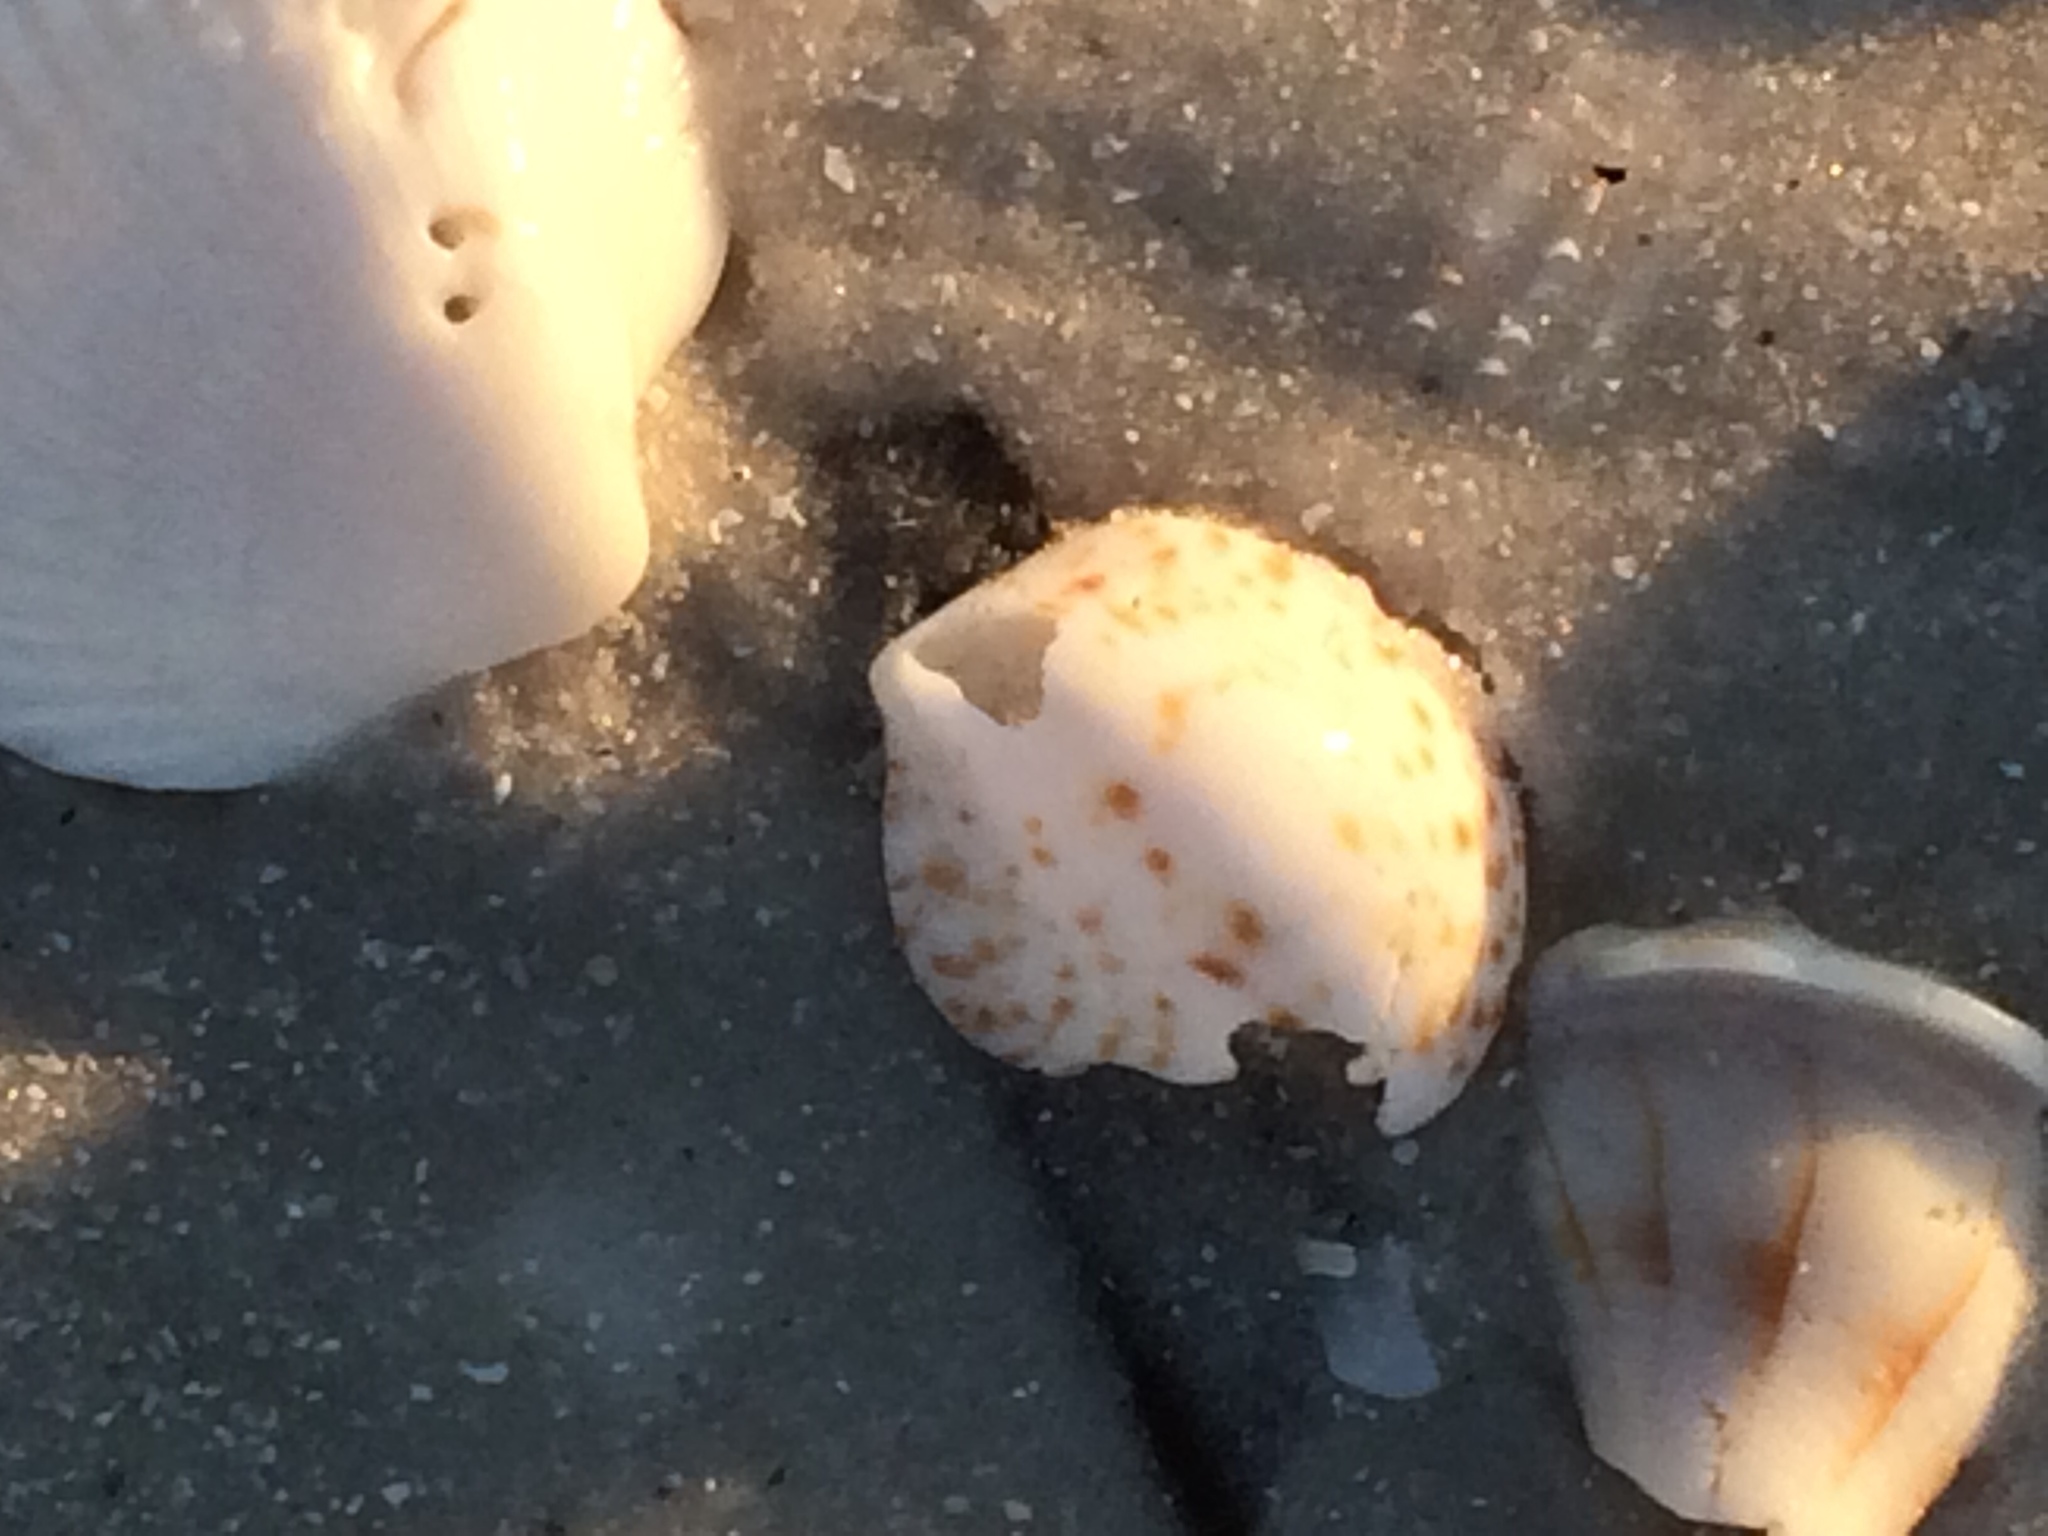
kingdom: Animalia
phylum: Mollusca
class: Gastropoda
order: Littorinimorpha
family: Calyptraeidae
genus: Crepidula
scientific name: Crepidula maculosa
